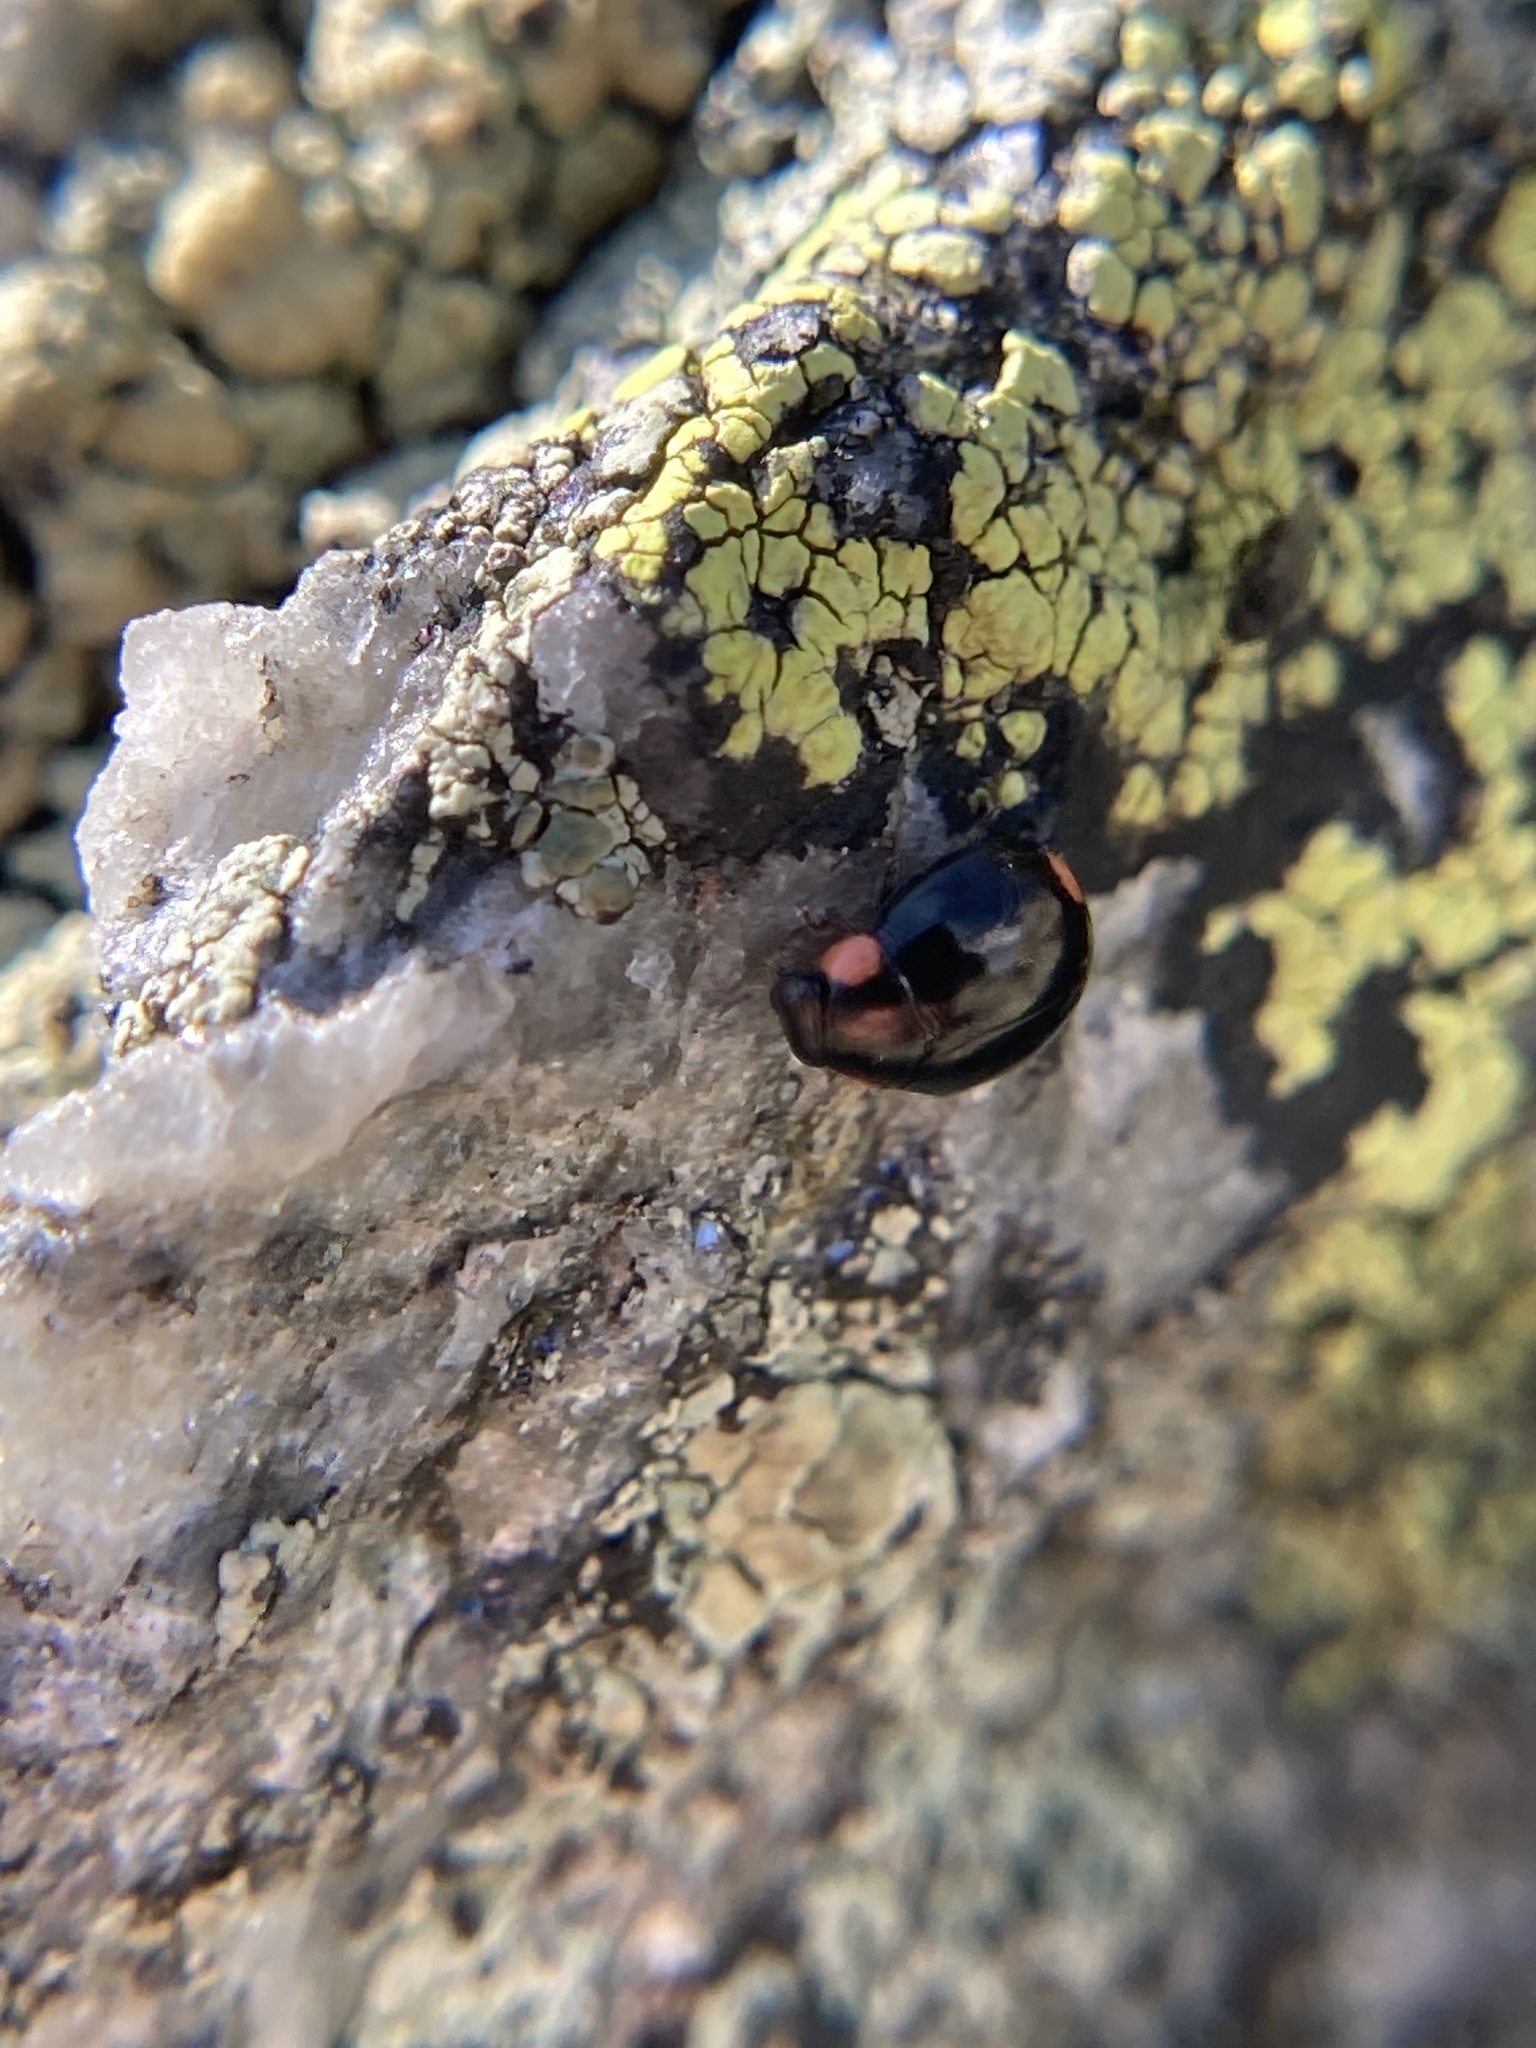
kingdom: Animalia
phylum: Arthropoda
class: Insecta
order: Coleoptera
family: Coccinellidae
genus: Hyperaspis
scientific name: Hyperaspis bigeminata
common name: Bigeminate sigil lady beetle
